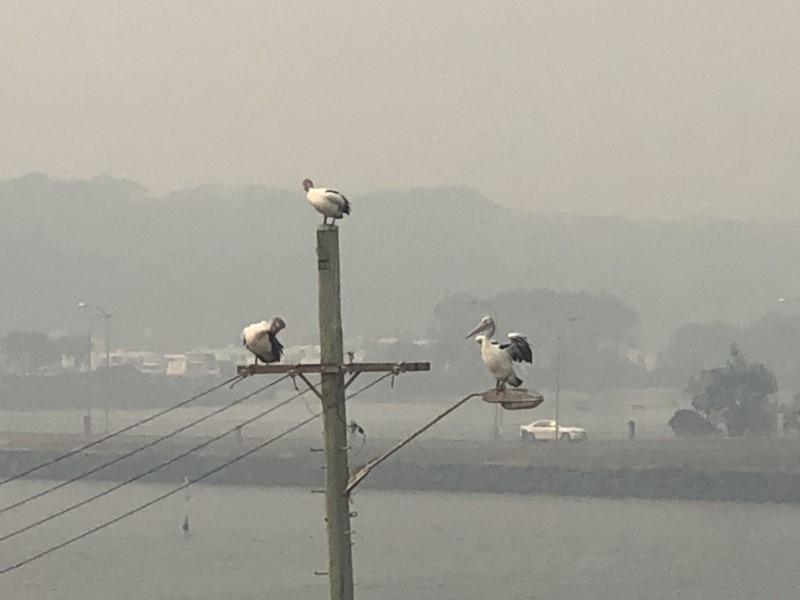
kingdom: Animalia
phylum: Chordata
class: Aves
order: Pelecaniformes
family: Pelecanidae
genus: Pelecanus
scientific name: Pelecanus conspicillatus
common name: Australian pelican
